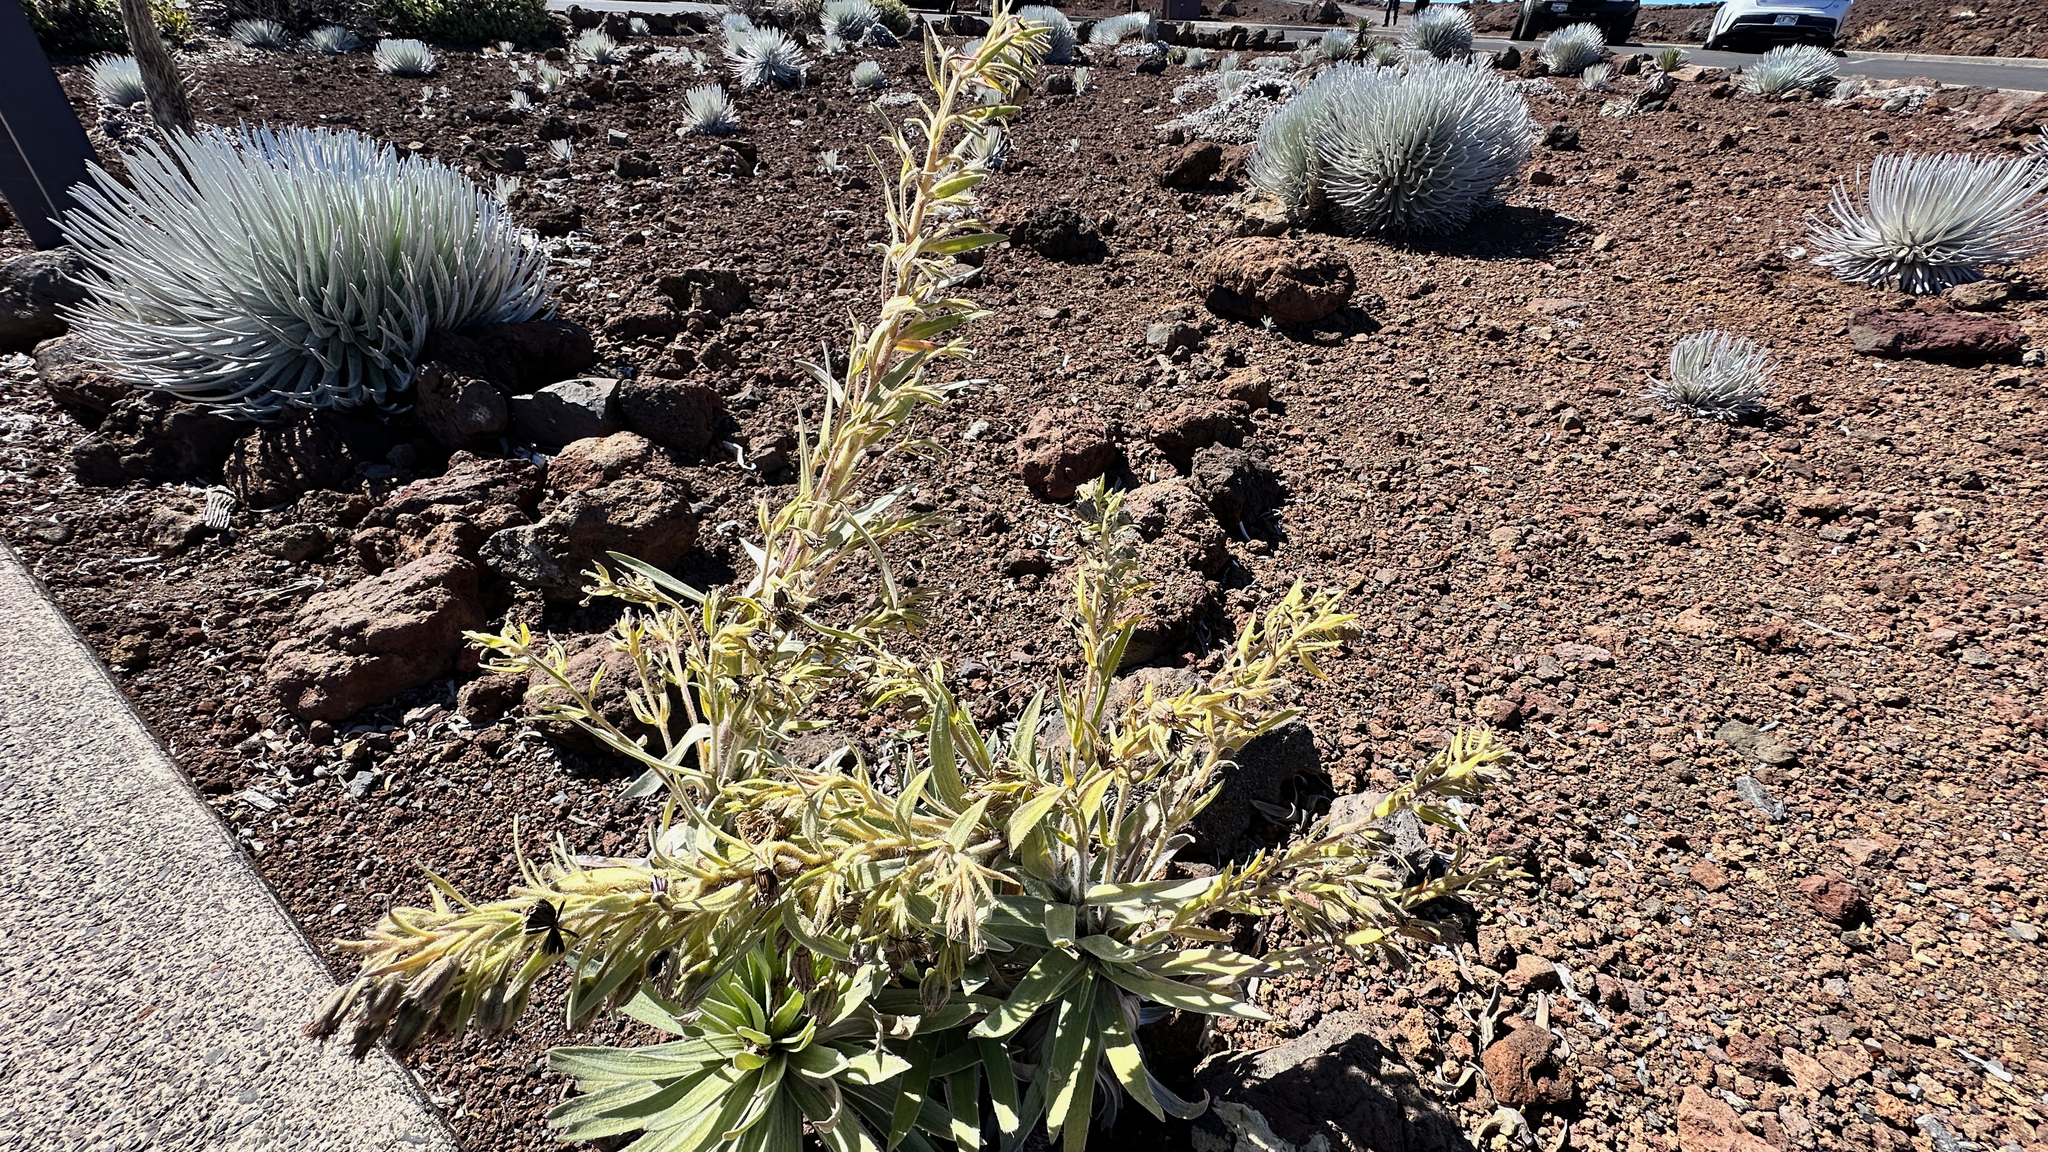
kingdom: Plantae
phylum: Tracheophyta
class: Magnoliopsida
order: Asterales
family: Asteraceae
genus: Dubautia
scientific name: Dubautia menziesii
